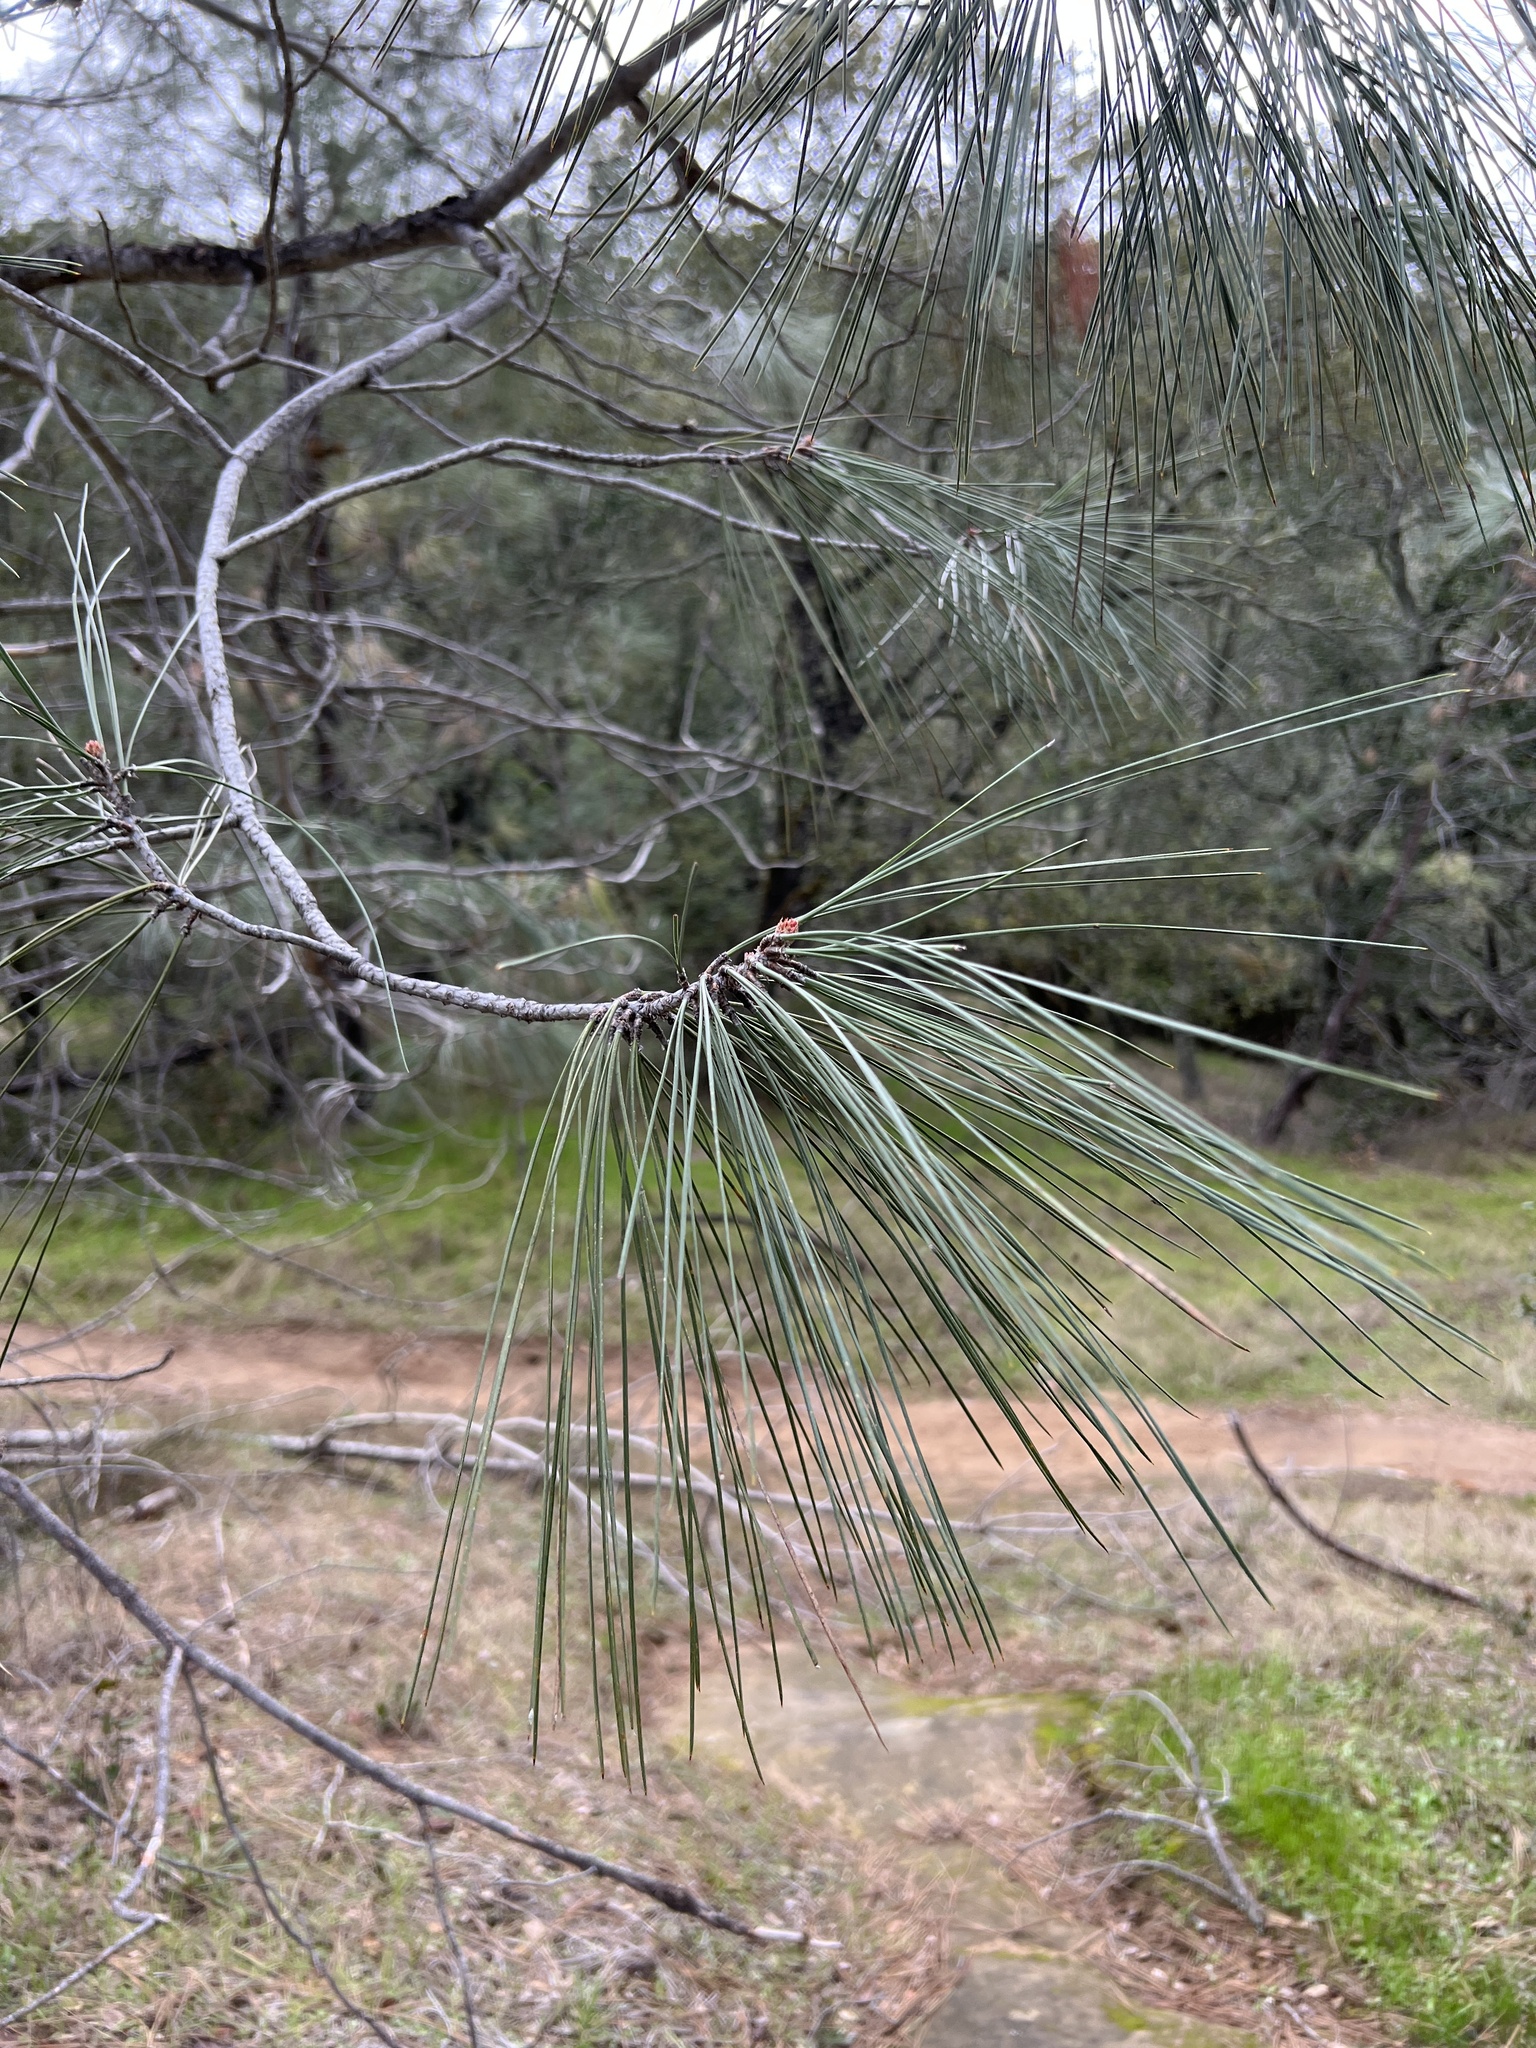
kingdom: Plantae
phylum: Tracheophyta
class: Pinopsida
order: Pinales
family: Pinaceae
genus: Pinus
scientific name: Pinus sabiniana
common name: Bull pine
